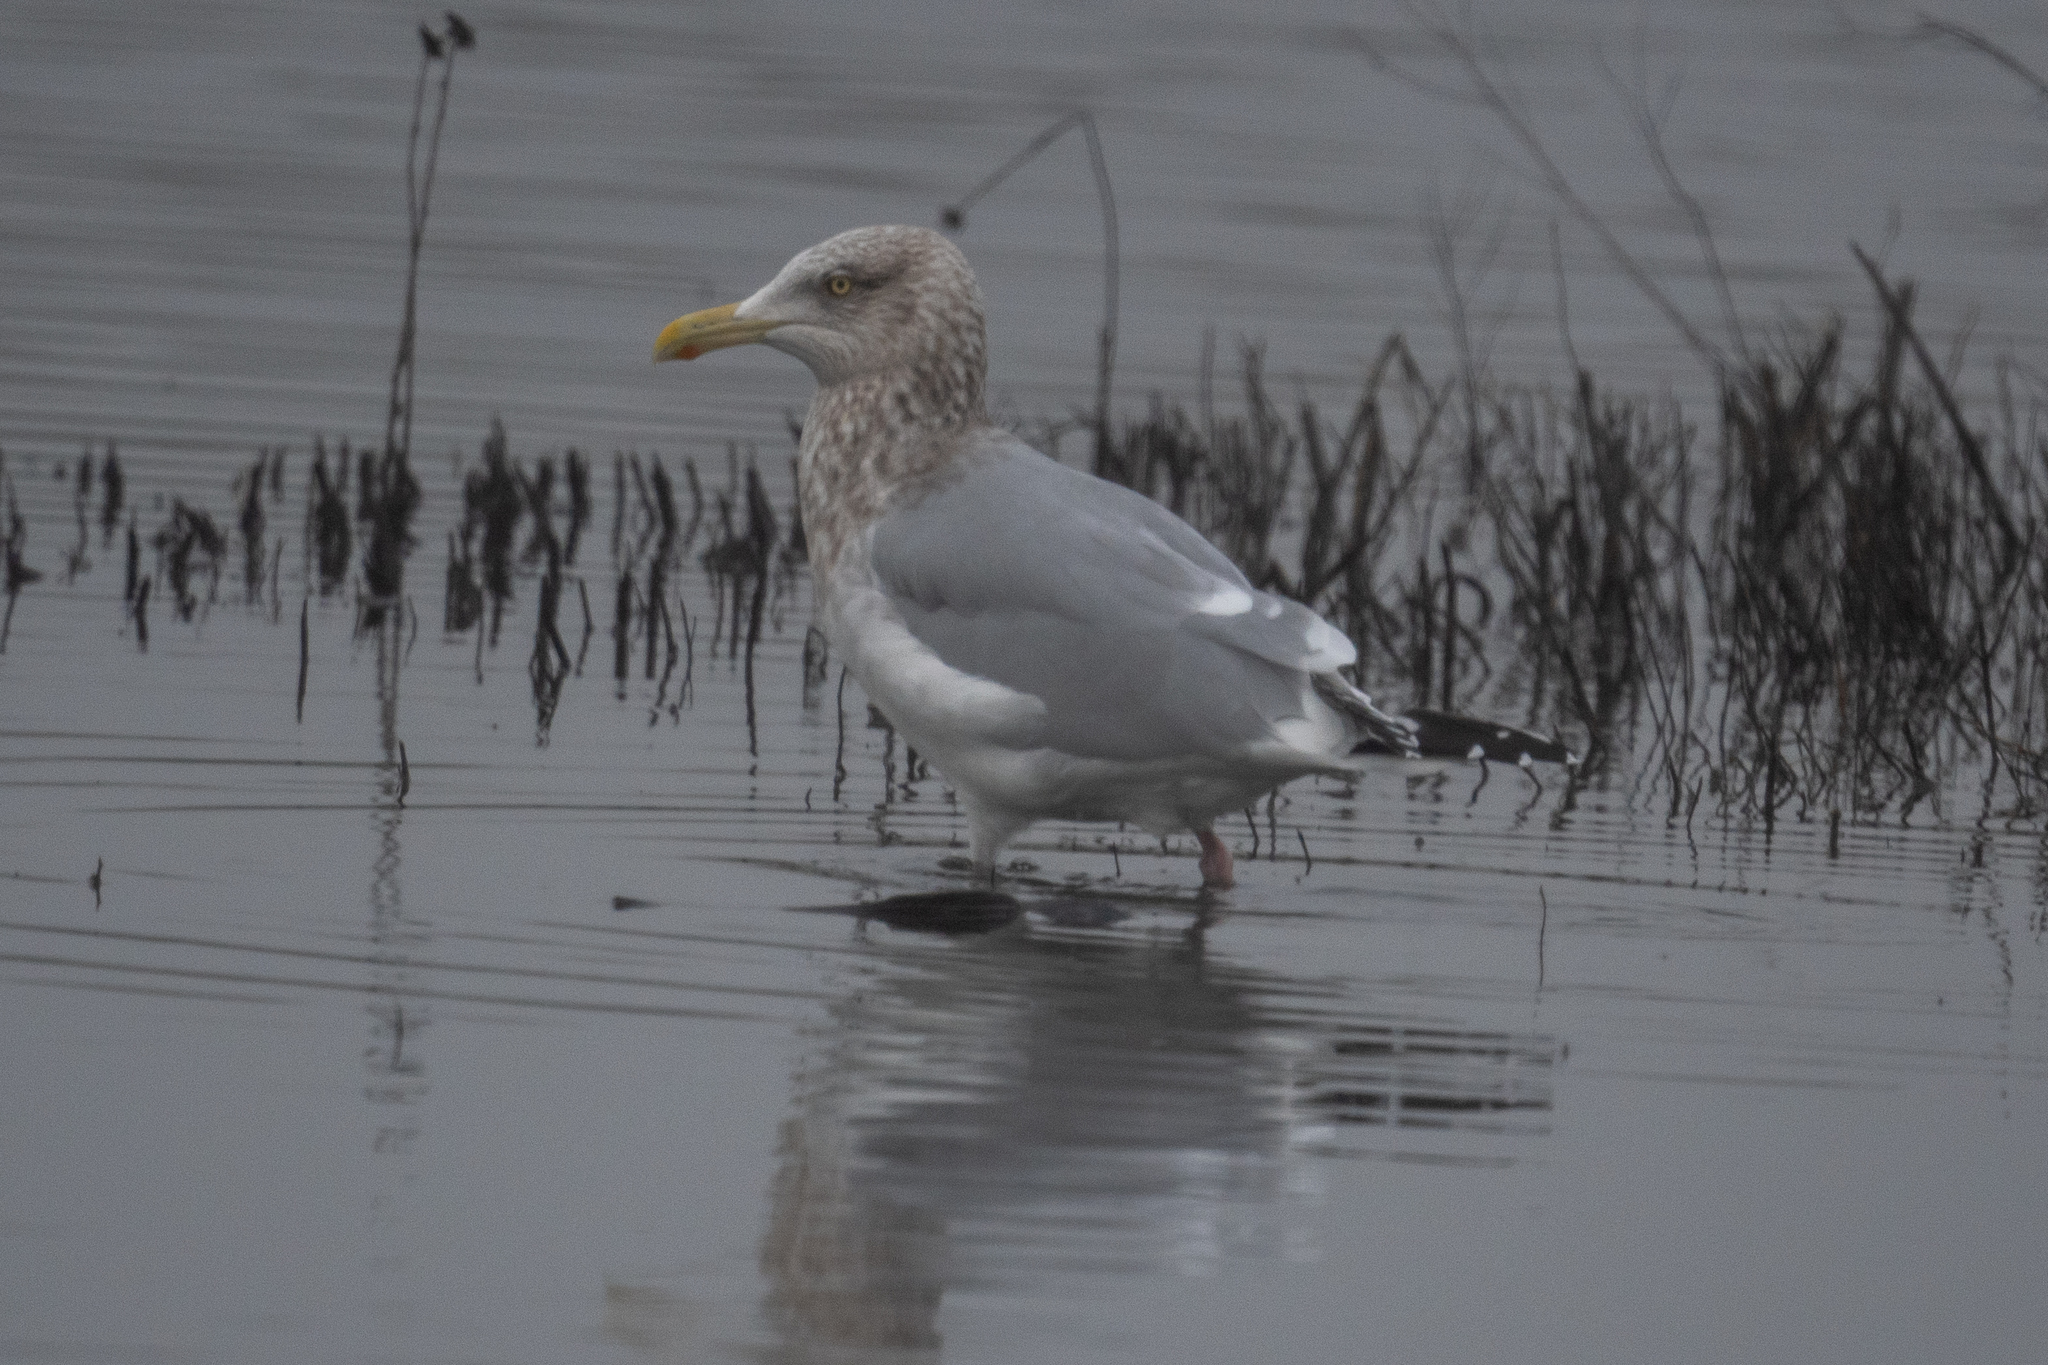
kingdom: Animalia
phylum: Chordata
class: Aves
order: Charadriiformes
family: Laridae
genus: Larus
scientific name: Larus argentatus
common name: Herring gull
